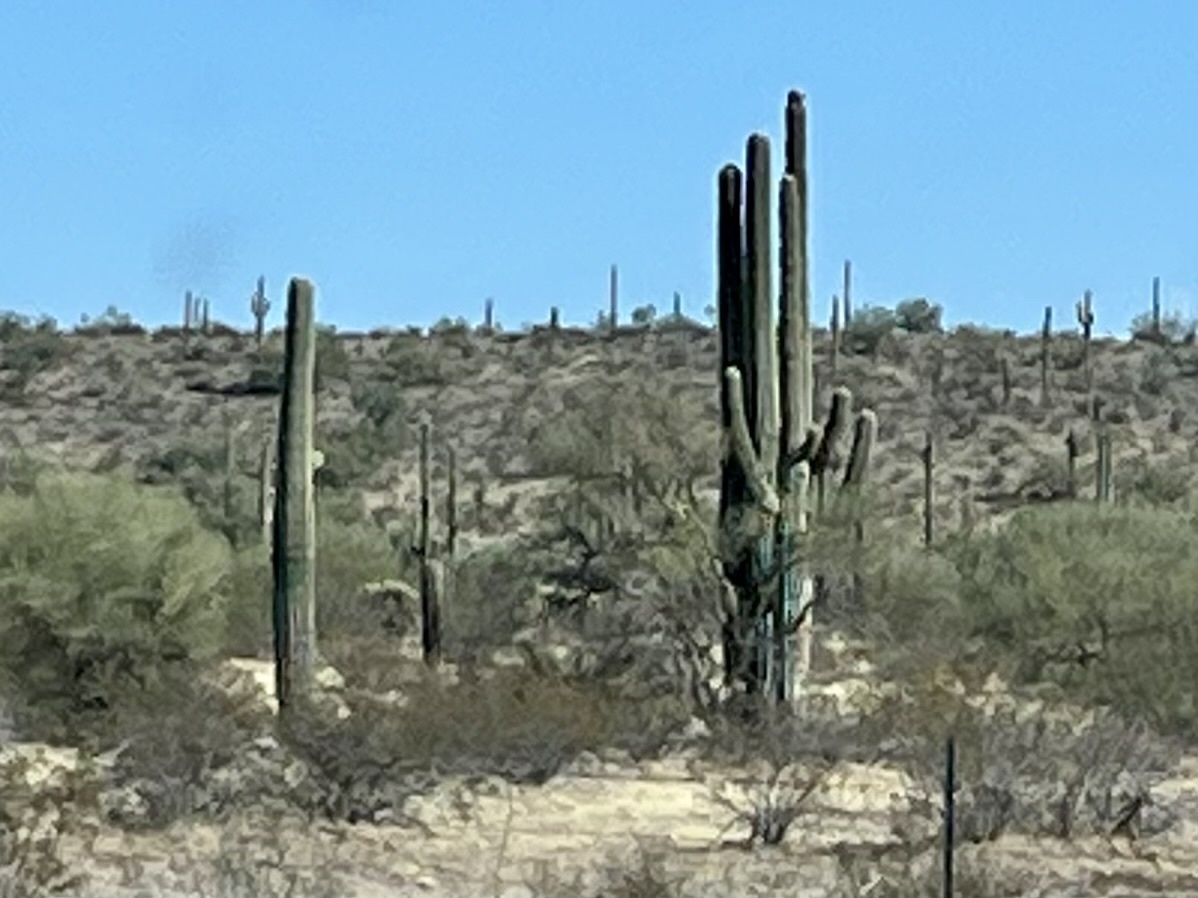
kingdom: Plantae
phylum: Tracheophyta
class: Magnoliopsida
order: Caryophyllales
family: Cactaceae
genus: Carnegiea
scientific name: Carnegiea gigantea
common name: Saguaro
